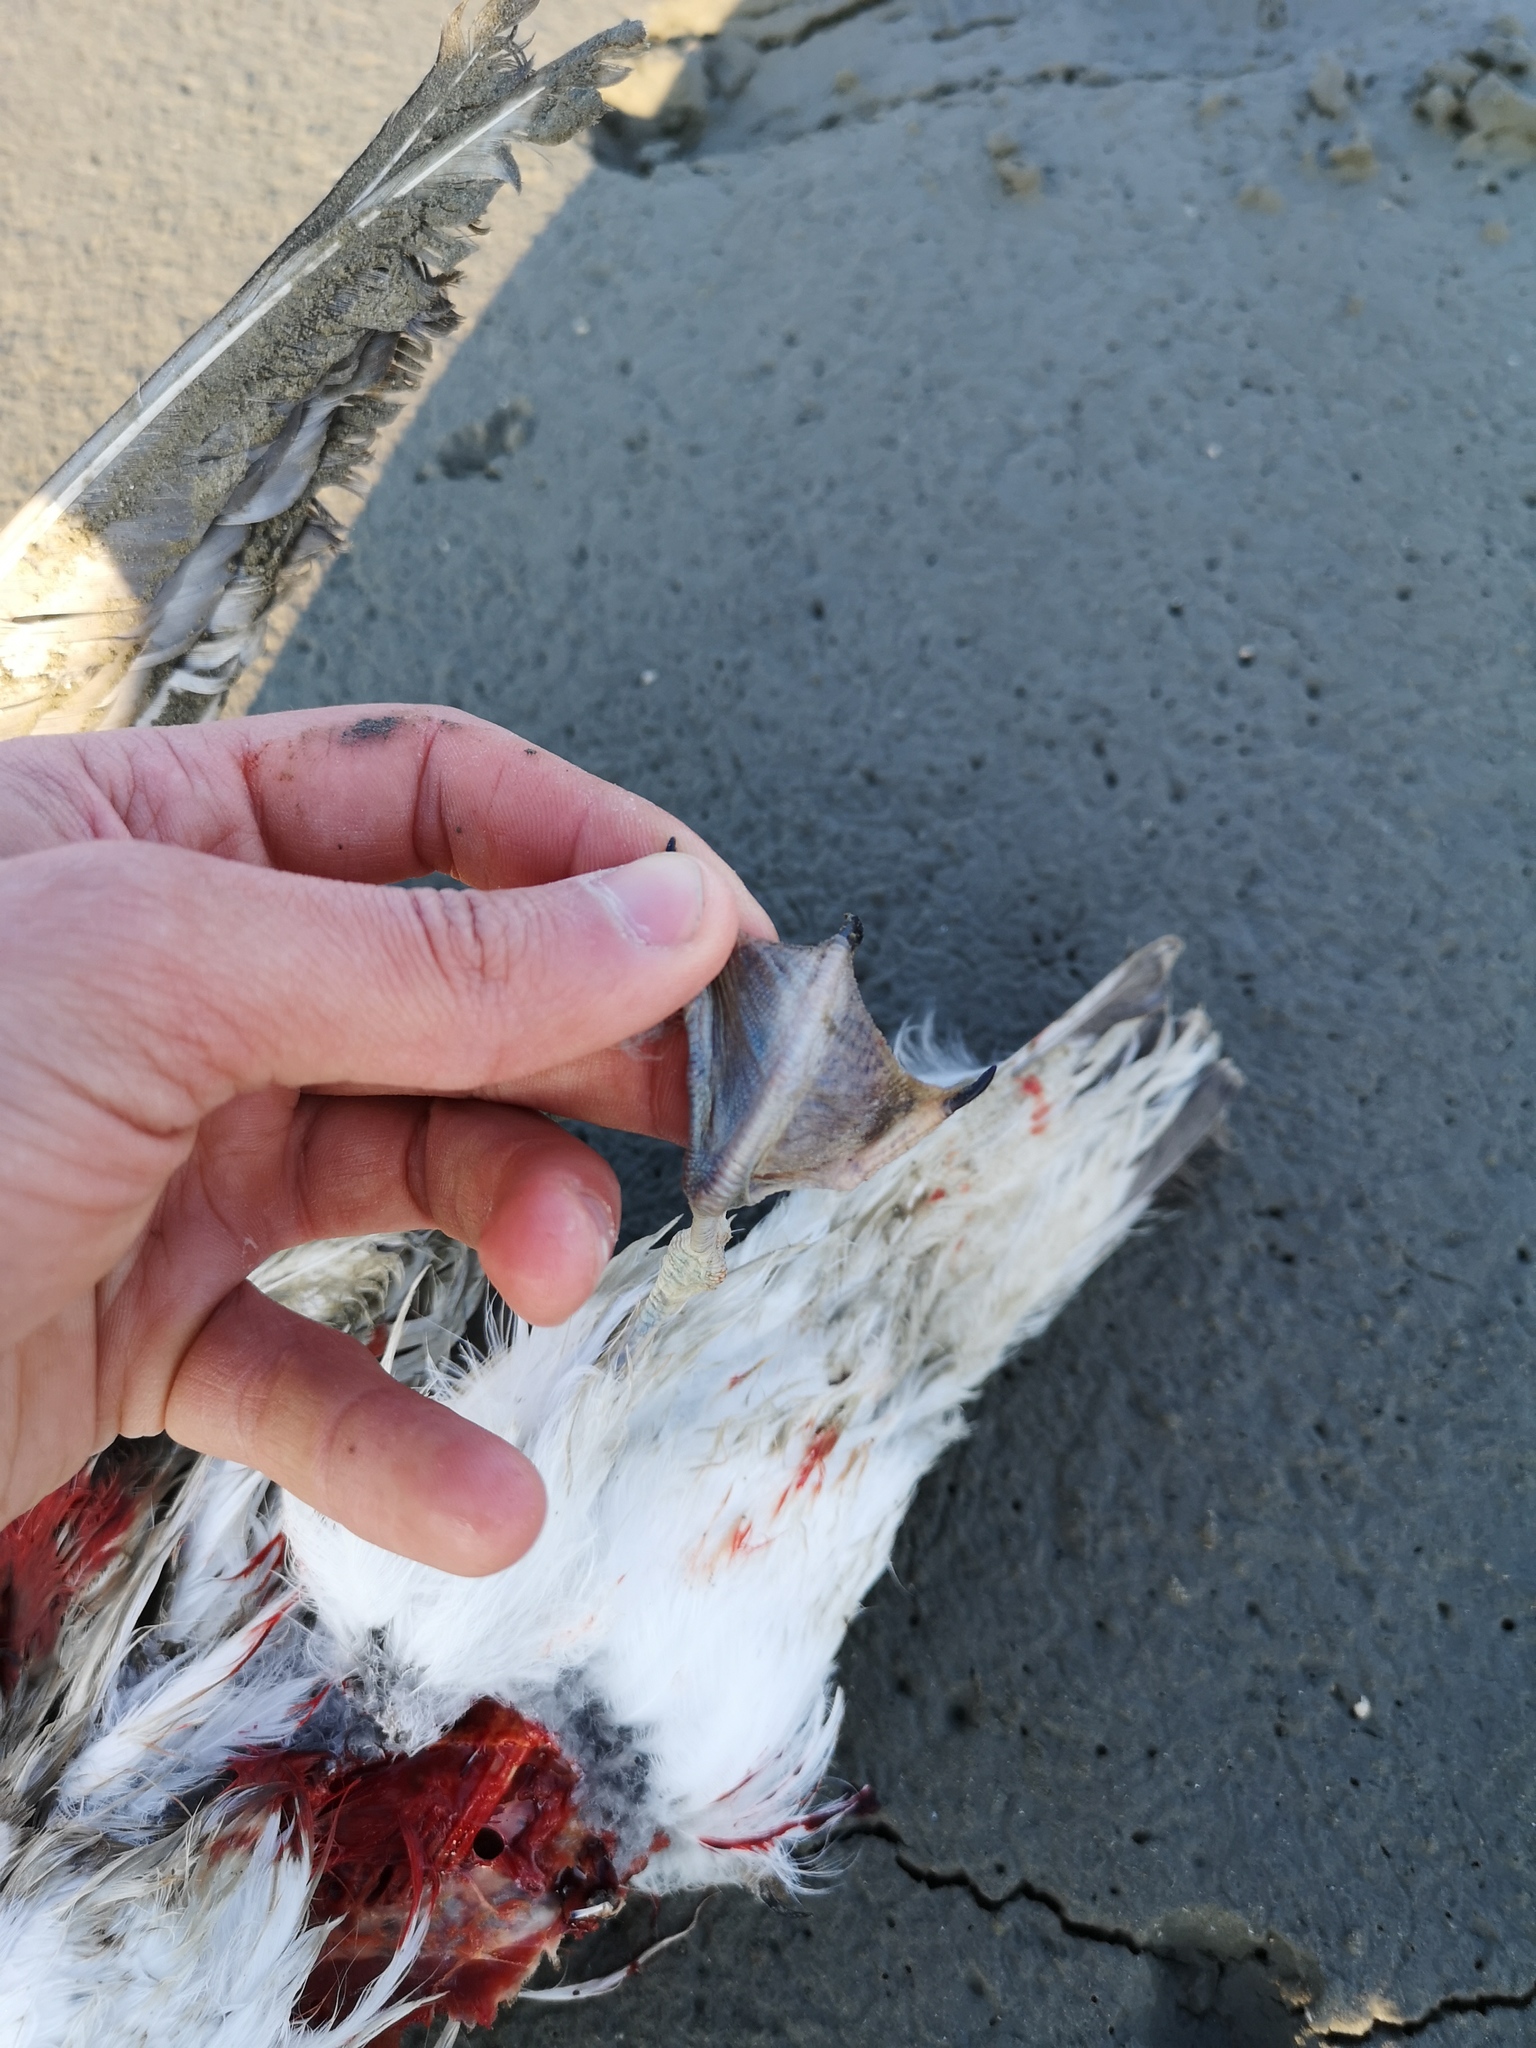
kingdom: Animalia
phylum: Chordata
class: Aves
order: Charadriiformes
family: Laridae
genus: Larus
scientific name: Larus canus
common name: Mew gull
